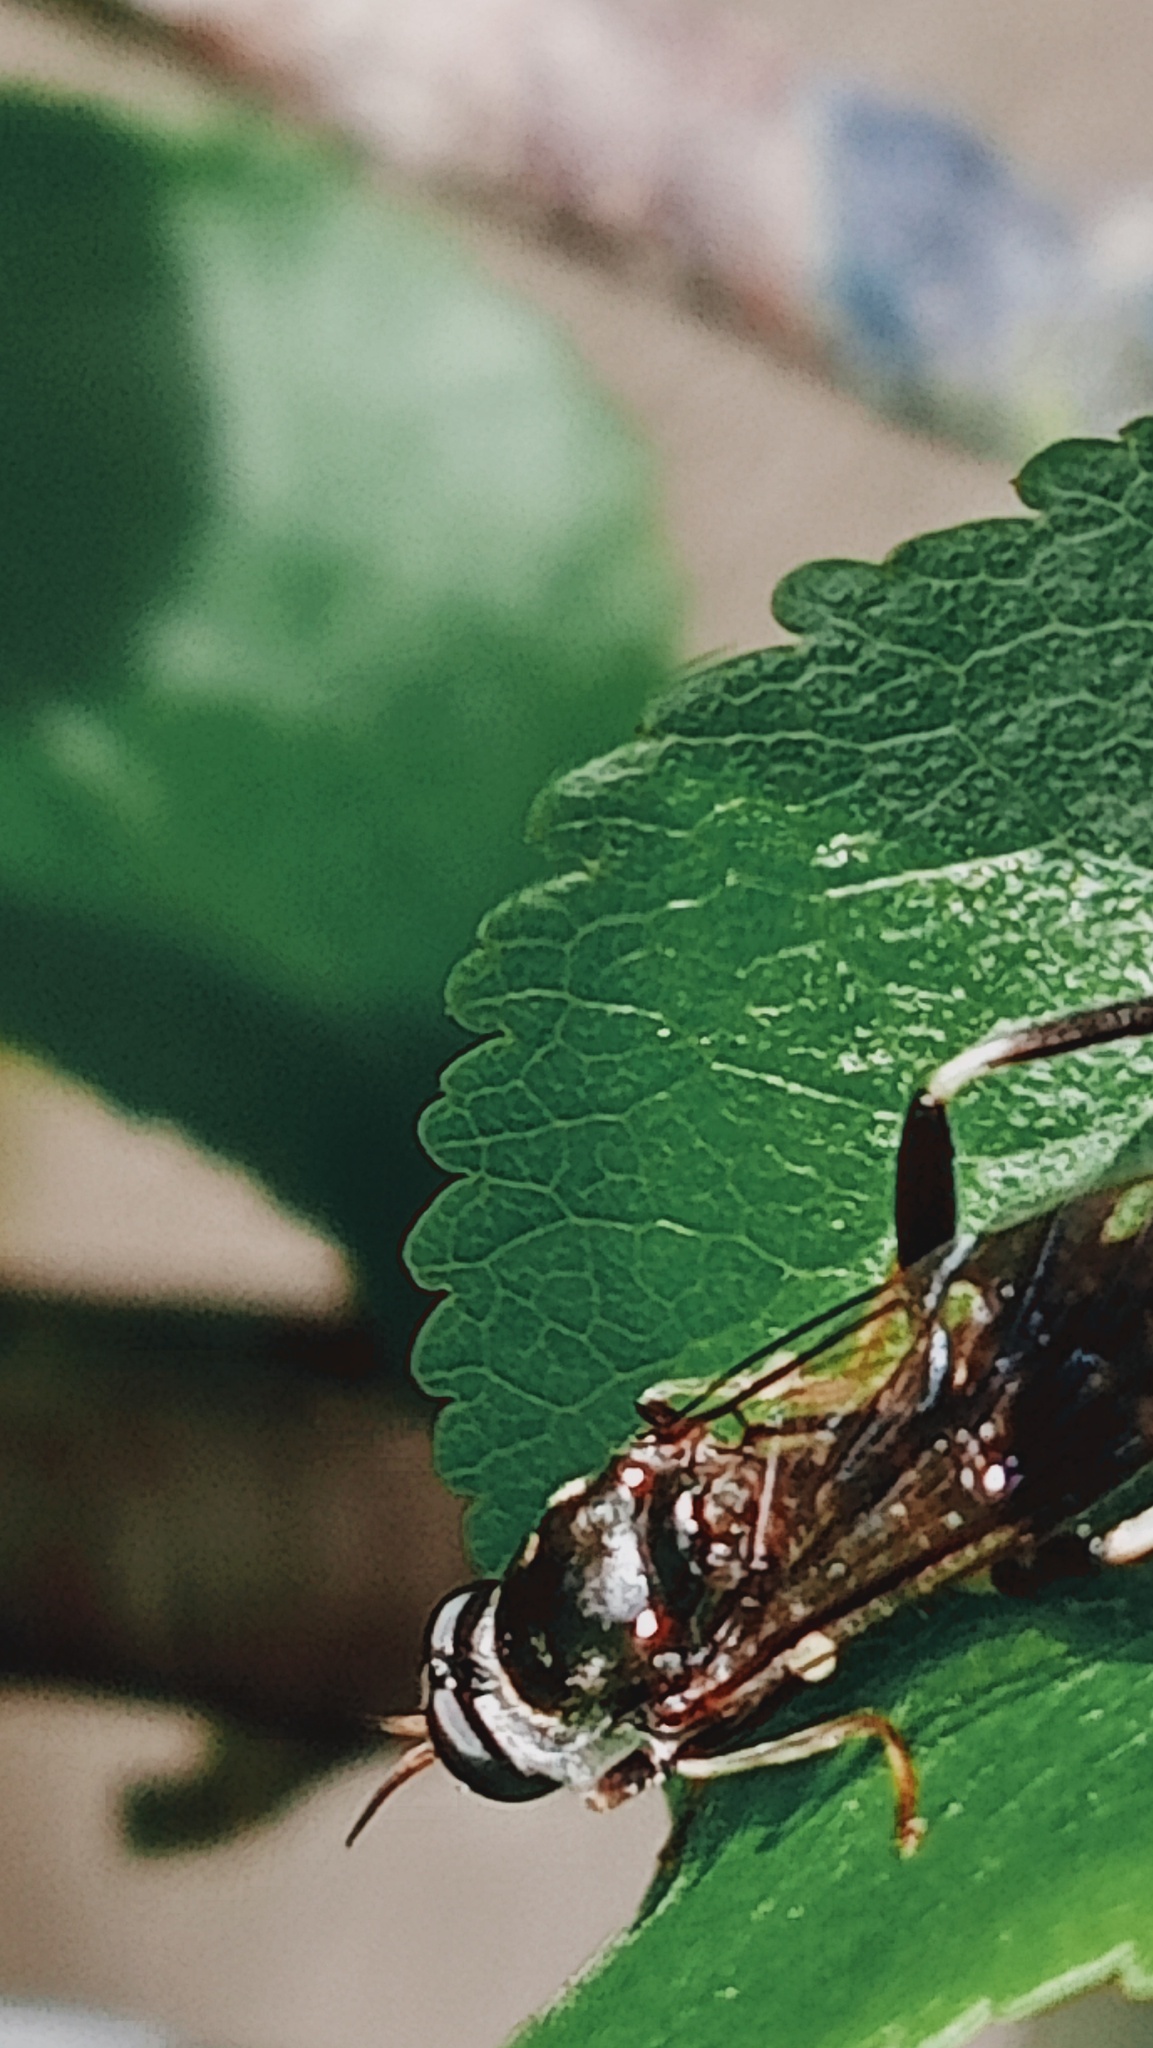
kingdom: Animalia
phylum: Arthropoda
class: Insecta
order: Diptera
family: Stratiomyidae
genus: Exaireta
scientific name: Exaireta spinigera
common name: Blue soldier fly
